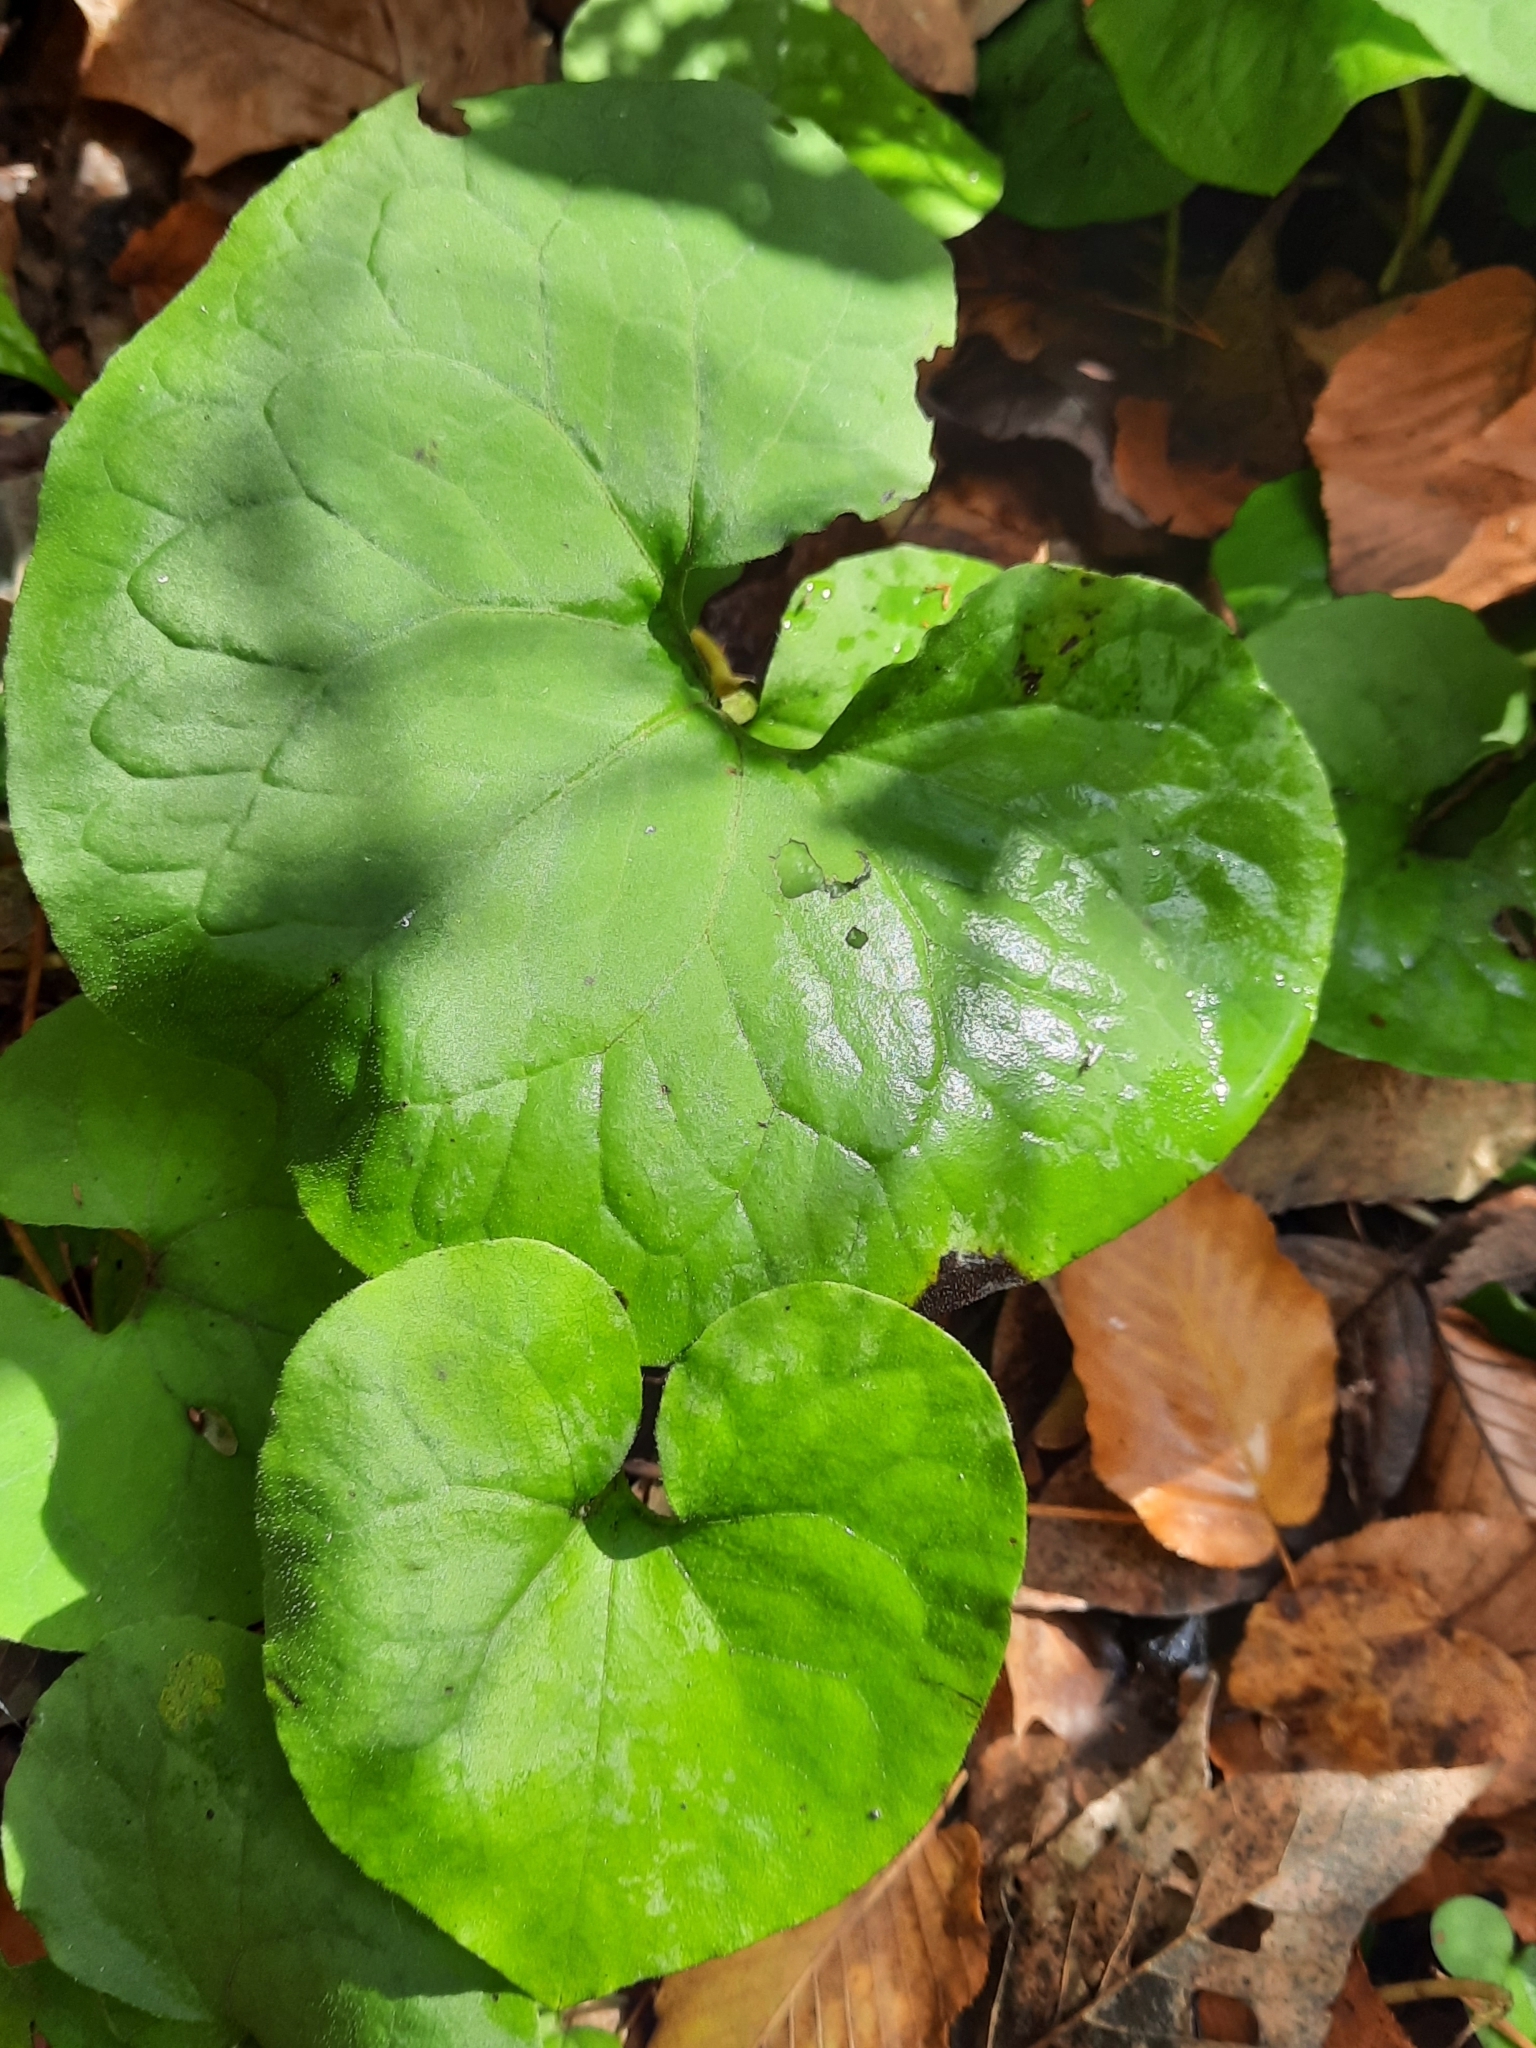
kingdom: Plantae
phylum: Tracheophyta
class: Magnoliopsida
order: Piperales
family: Aristolochiaceae
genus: Asarum
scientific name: Asarum canadense
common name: Wild ginger
